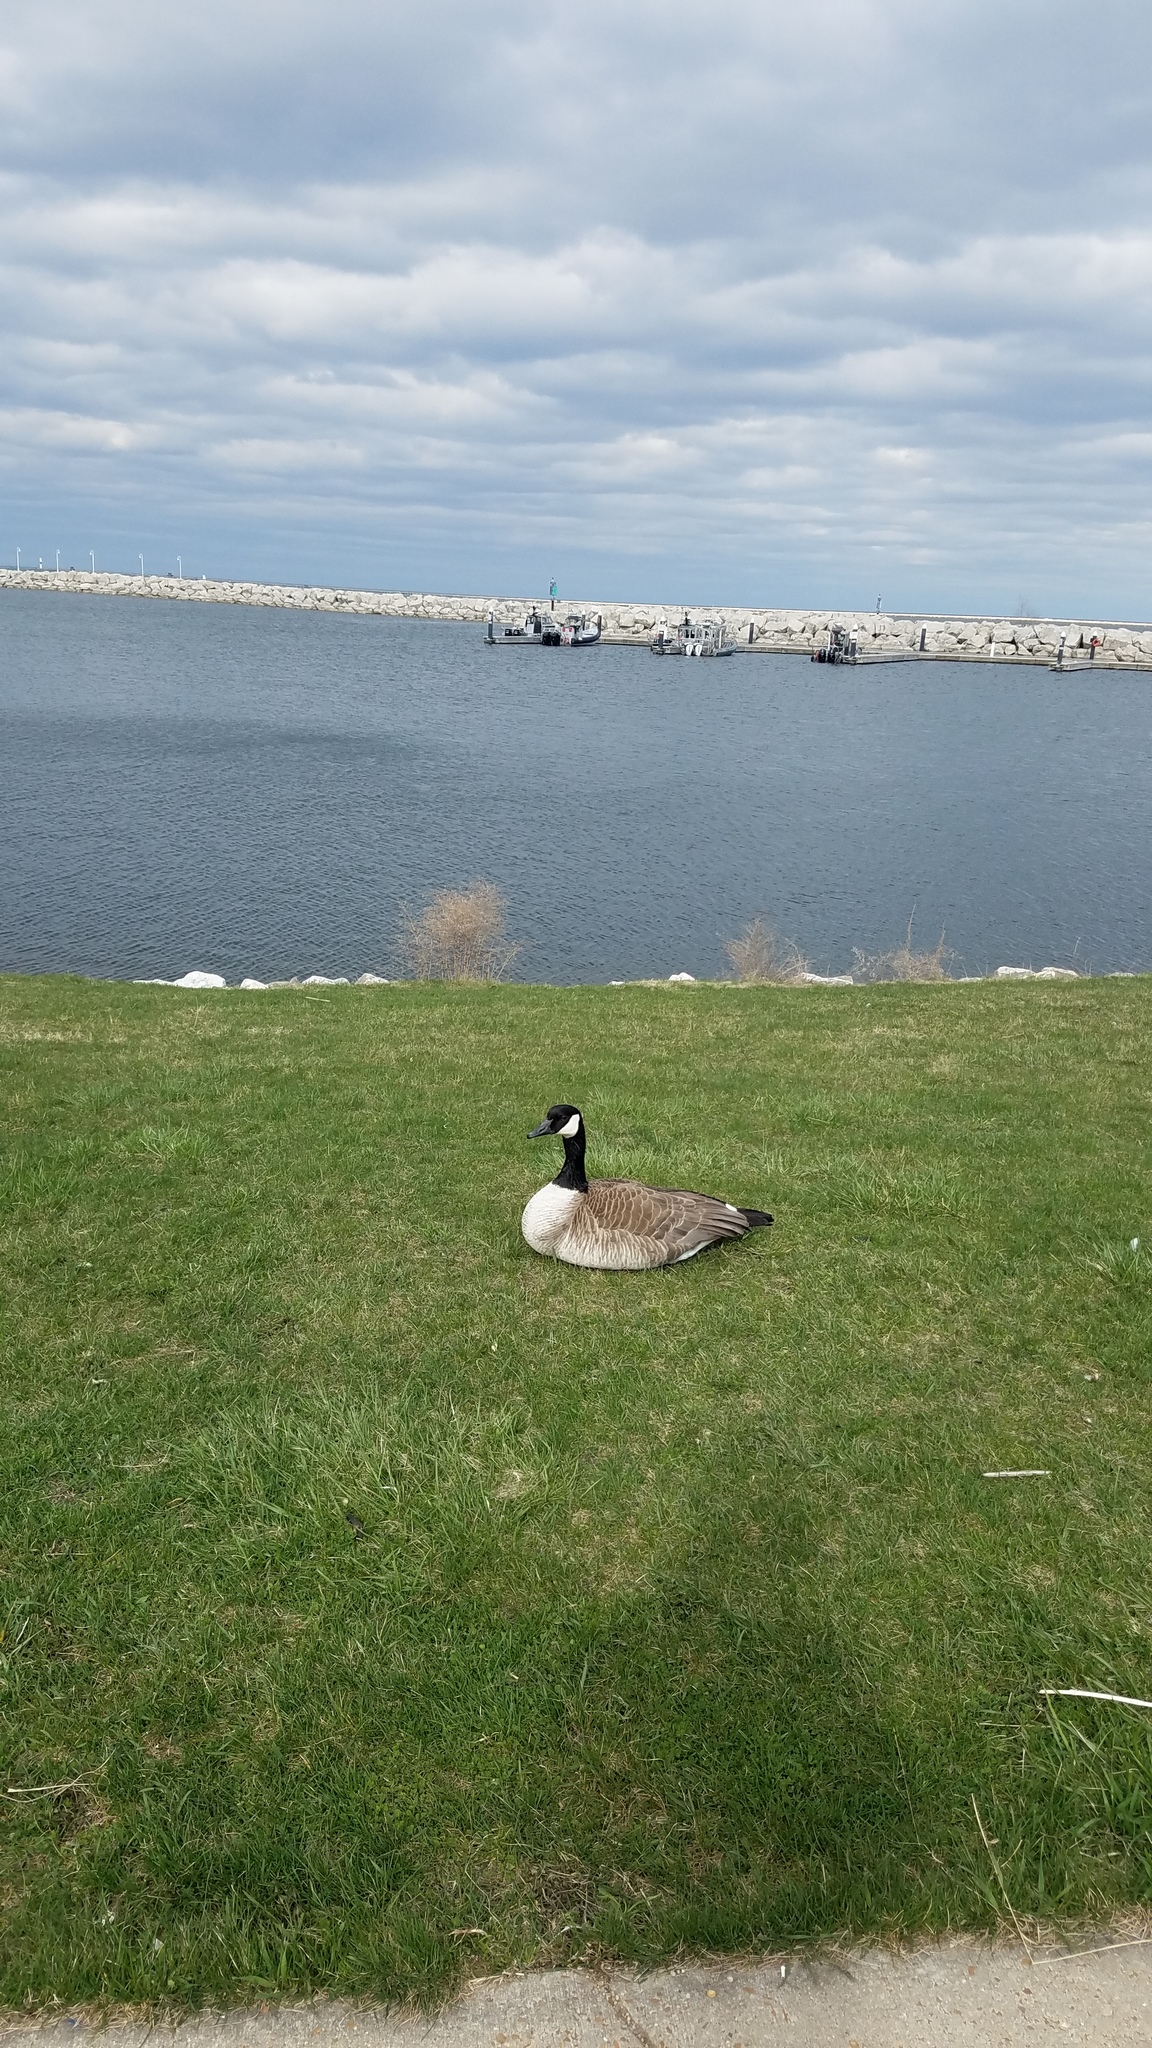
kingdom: Animalia
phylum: Chordata
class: Aves
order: Anseriformes
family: Anatidae
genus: Branta
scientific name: Branta canadensis
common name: Canada goose
